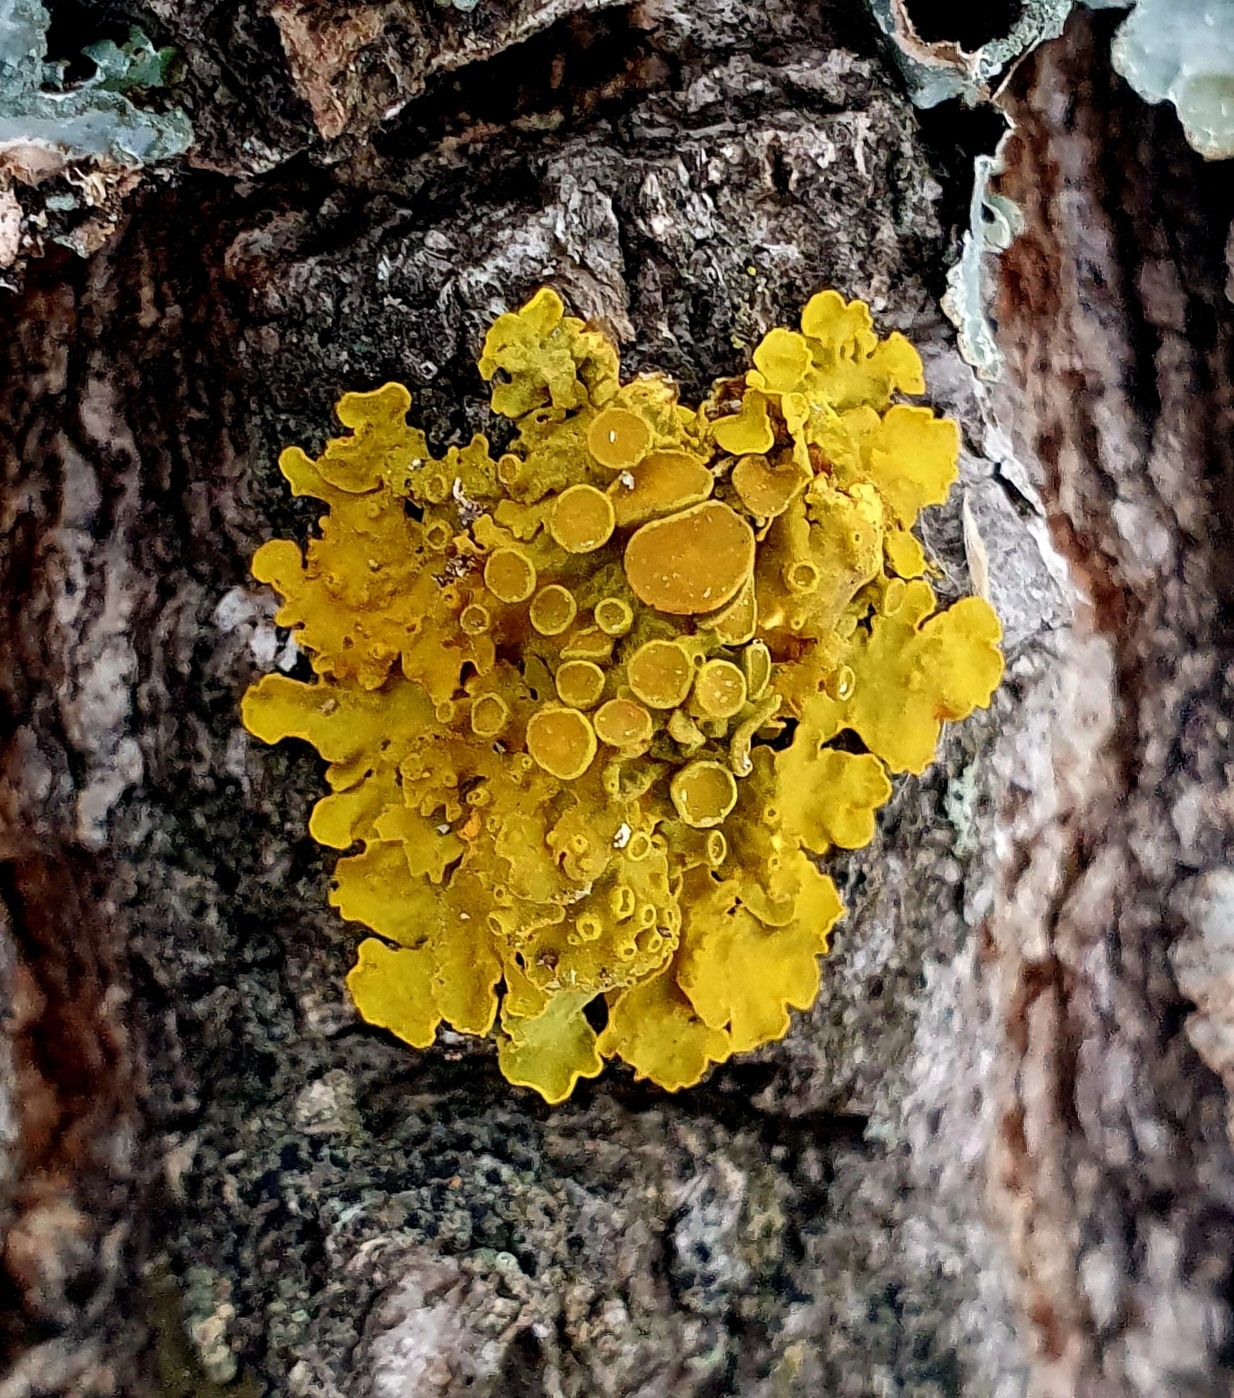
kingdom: Fungi
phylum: Ascomycota
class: Lecanoromycetes
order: Teloschistales
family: Teloschistaceae
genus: Xanthoria
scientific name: Xanthoria parietina
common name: Common orange lichen
